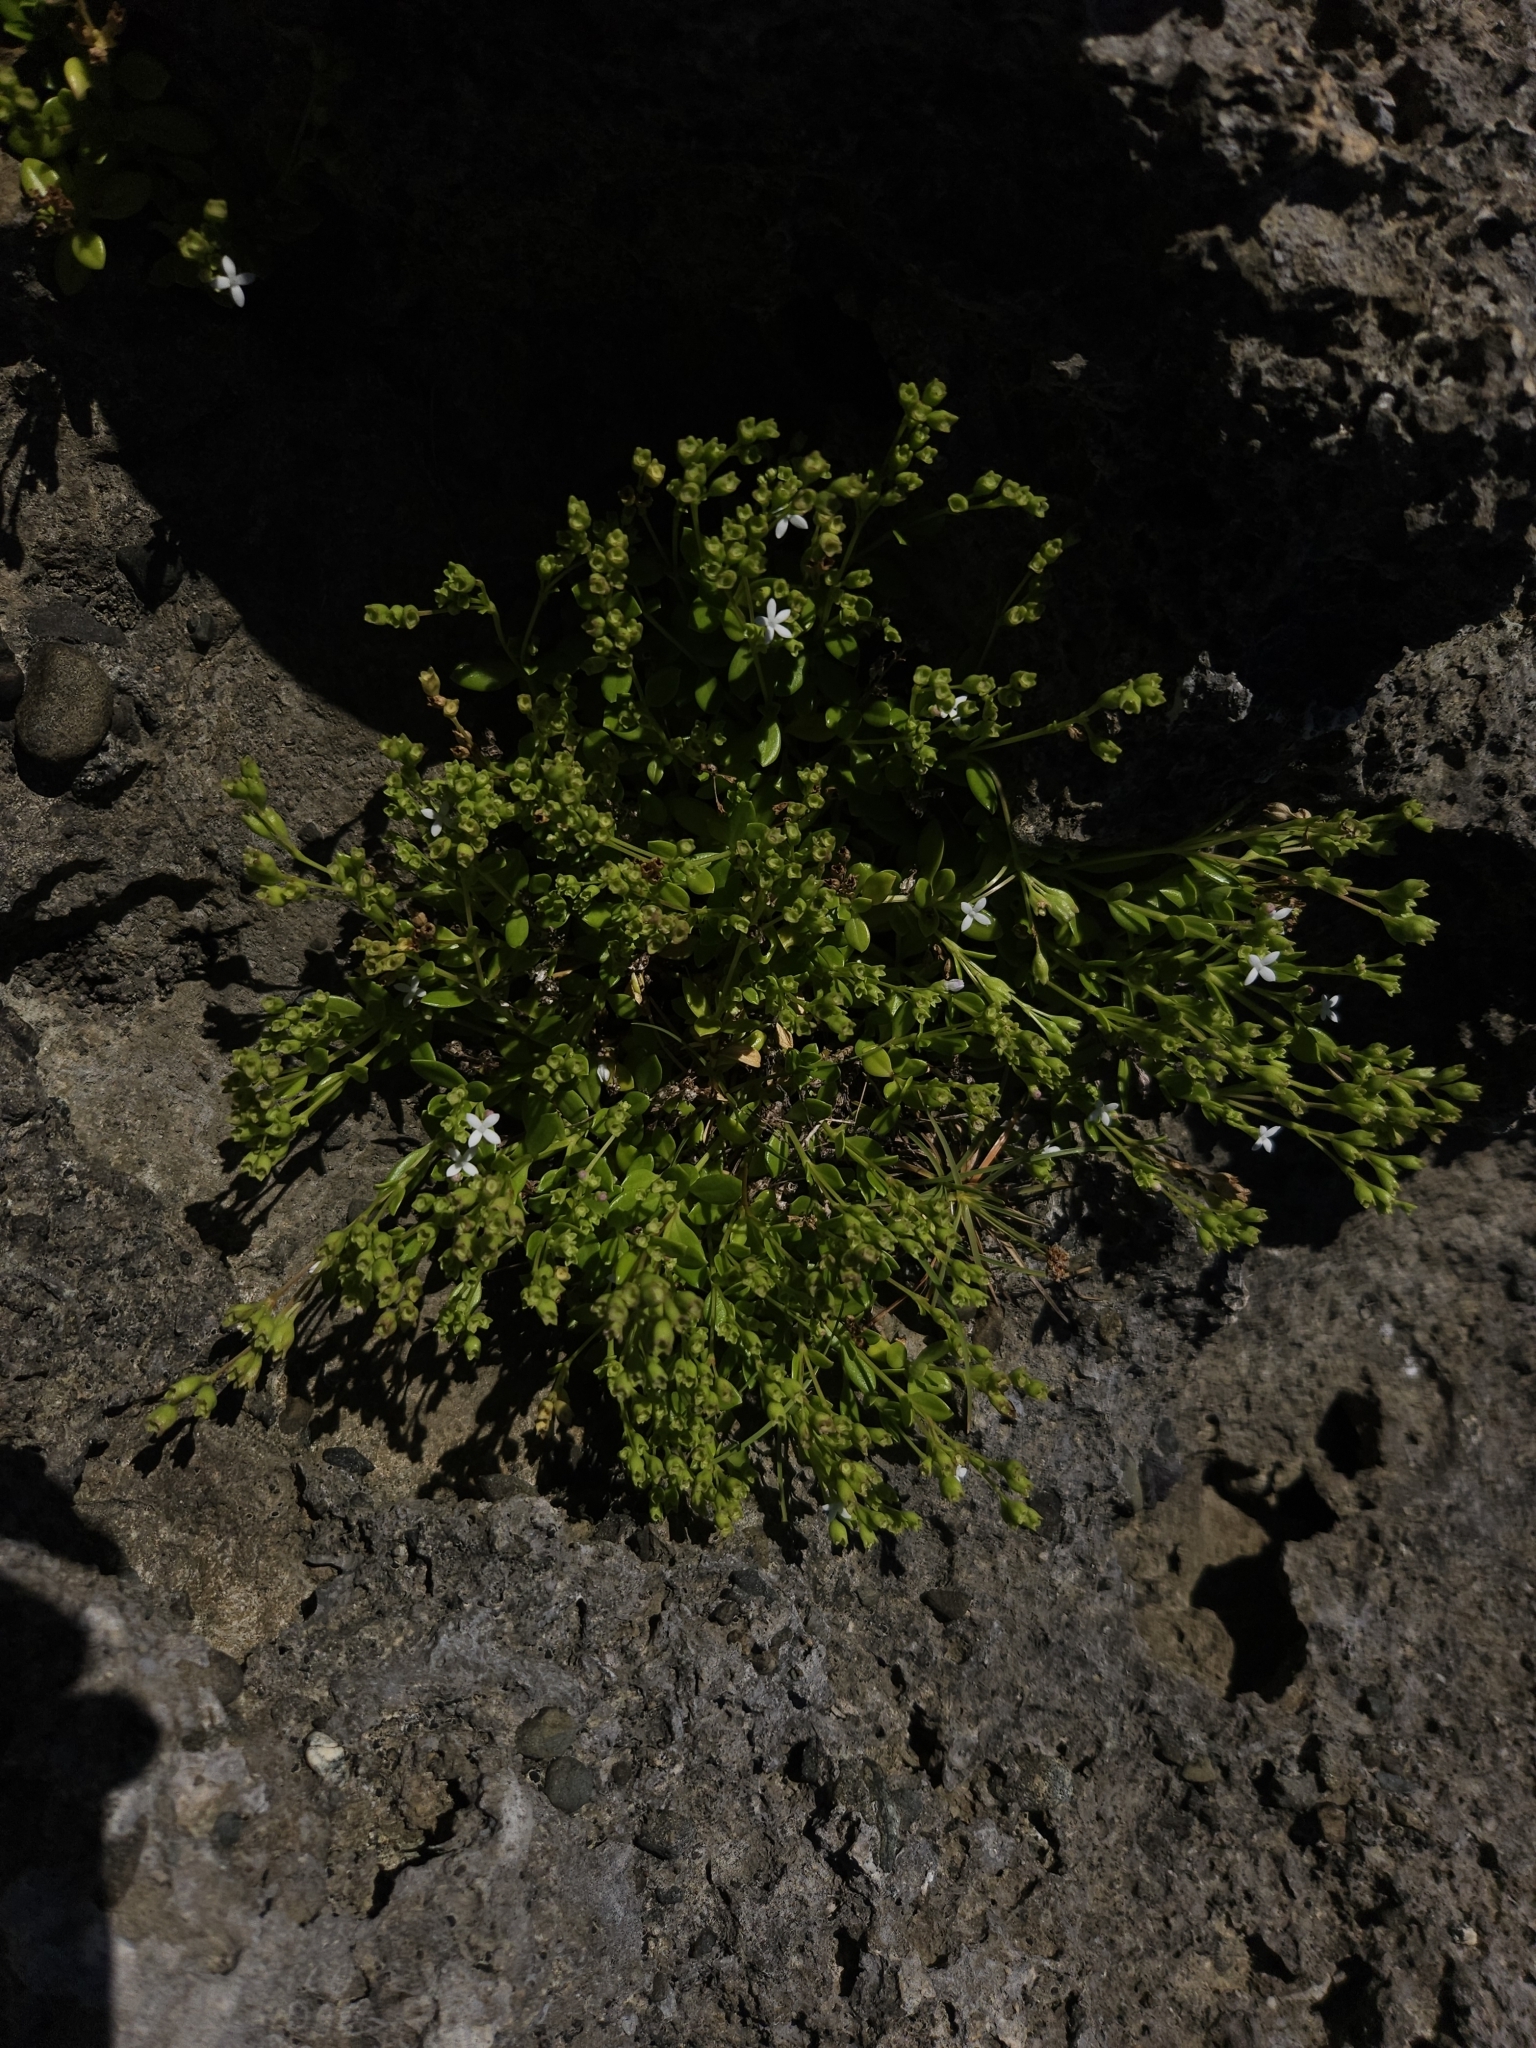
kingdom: Plantae
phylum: Tracheophyta
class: Magnoliopsida
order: Gentianales
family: Rubiaceae
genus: Leptopetalum
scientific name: Leptopetalum strigulosum
